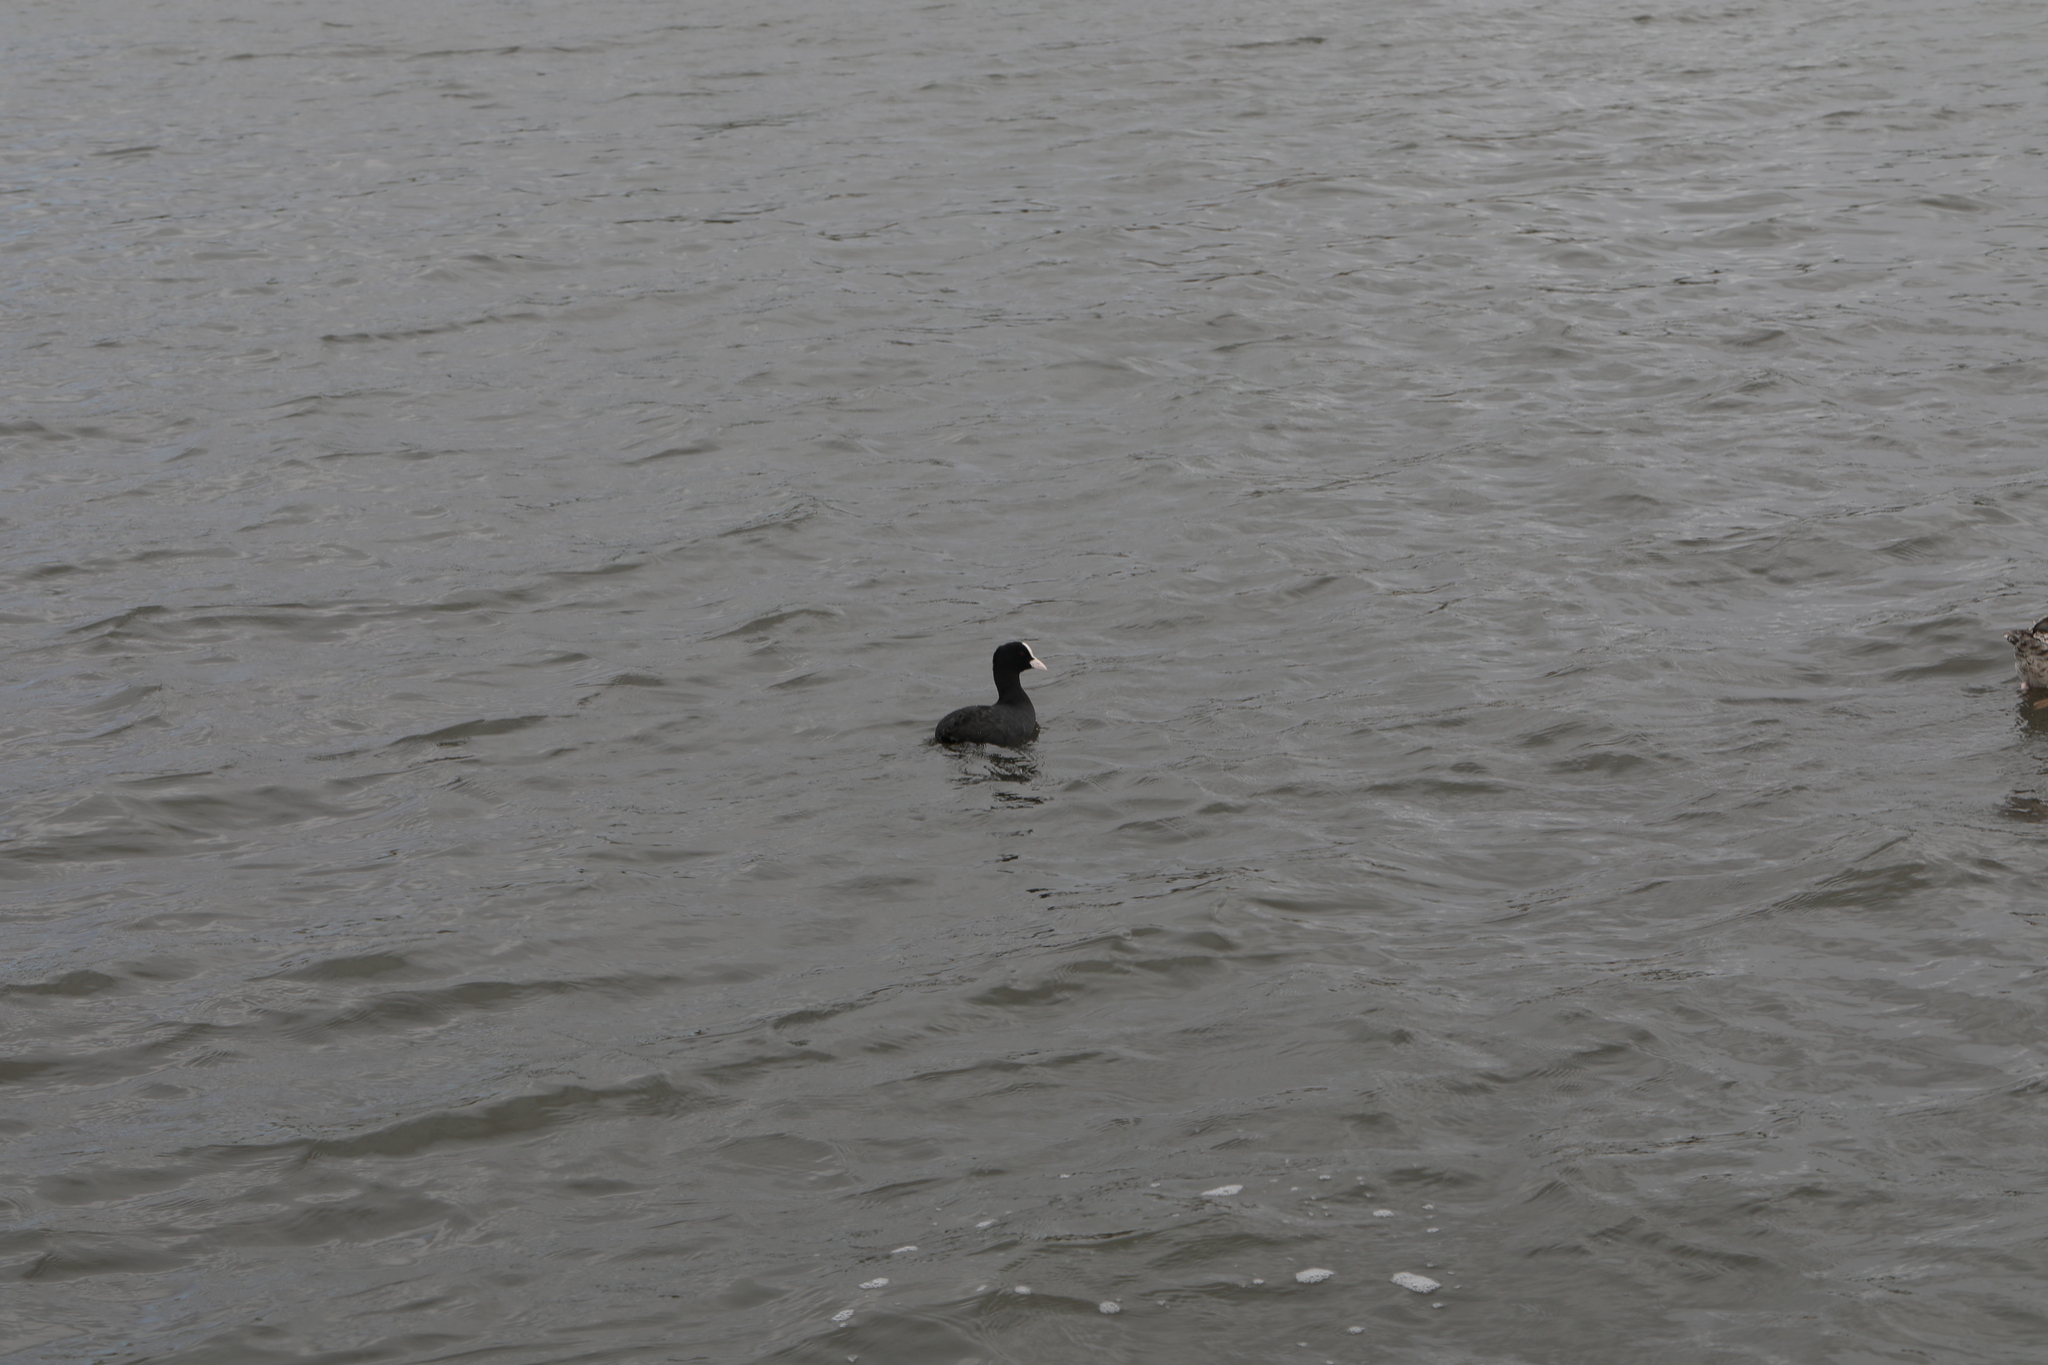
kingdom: Animalia
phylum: Chordata
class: Aves
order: Gruiformes
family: Rallidae
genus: Fulica
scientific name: Fulica atra
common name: Eurasian coot
